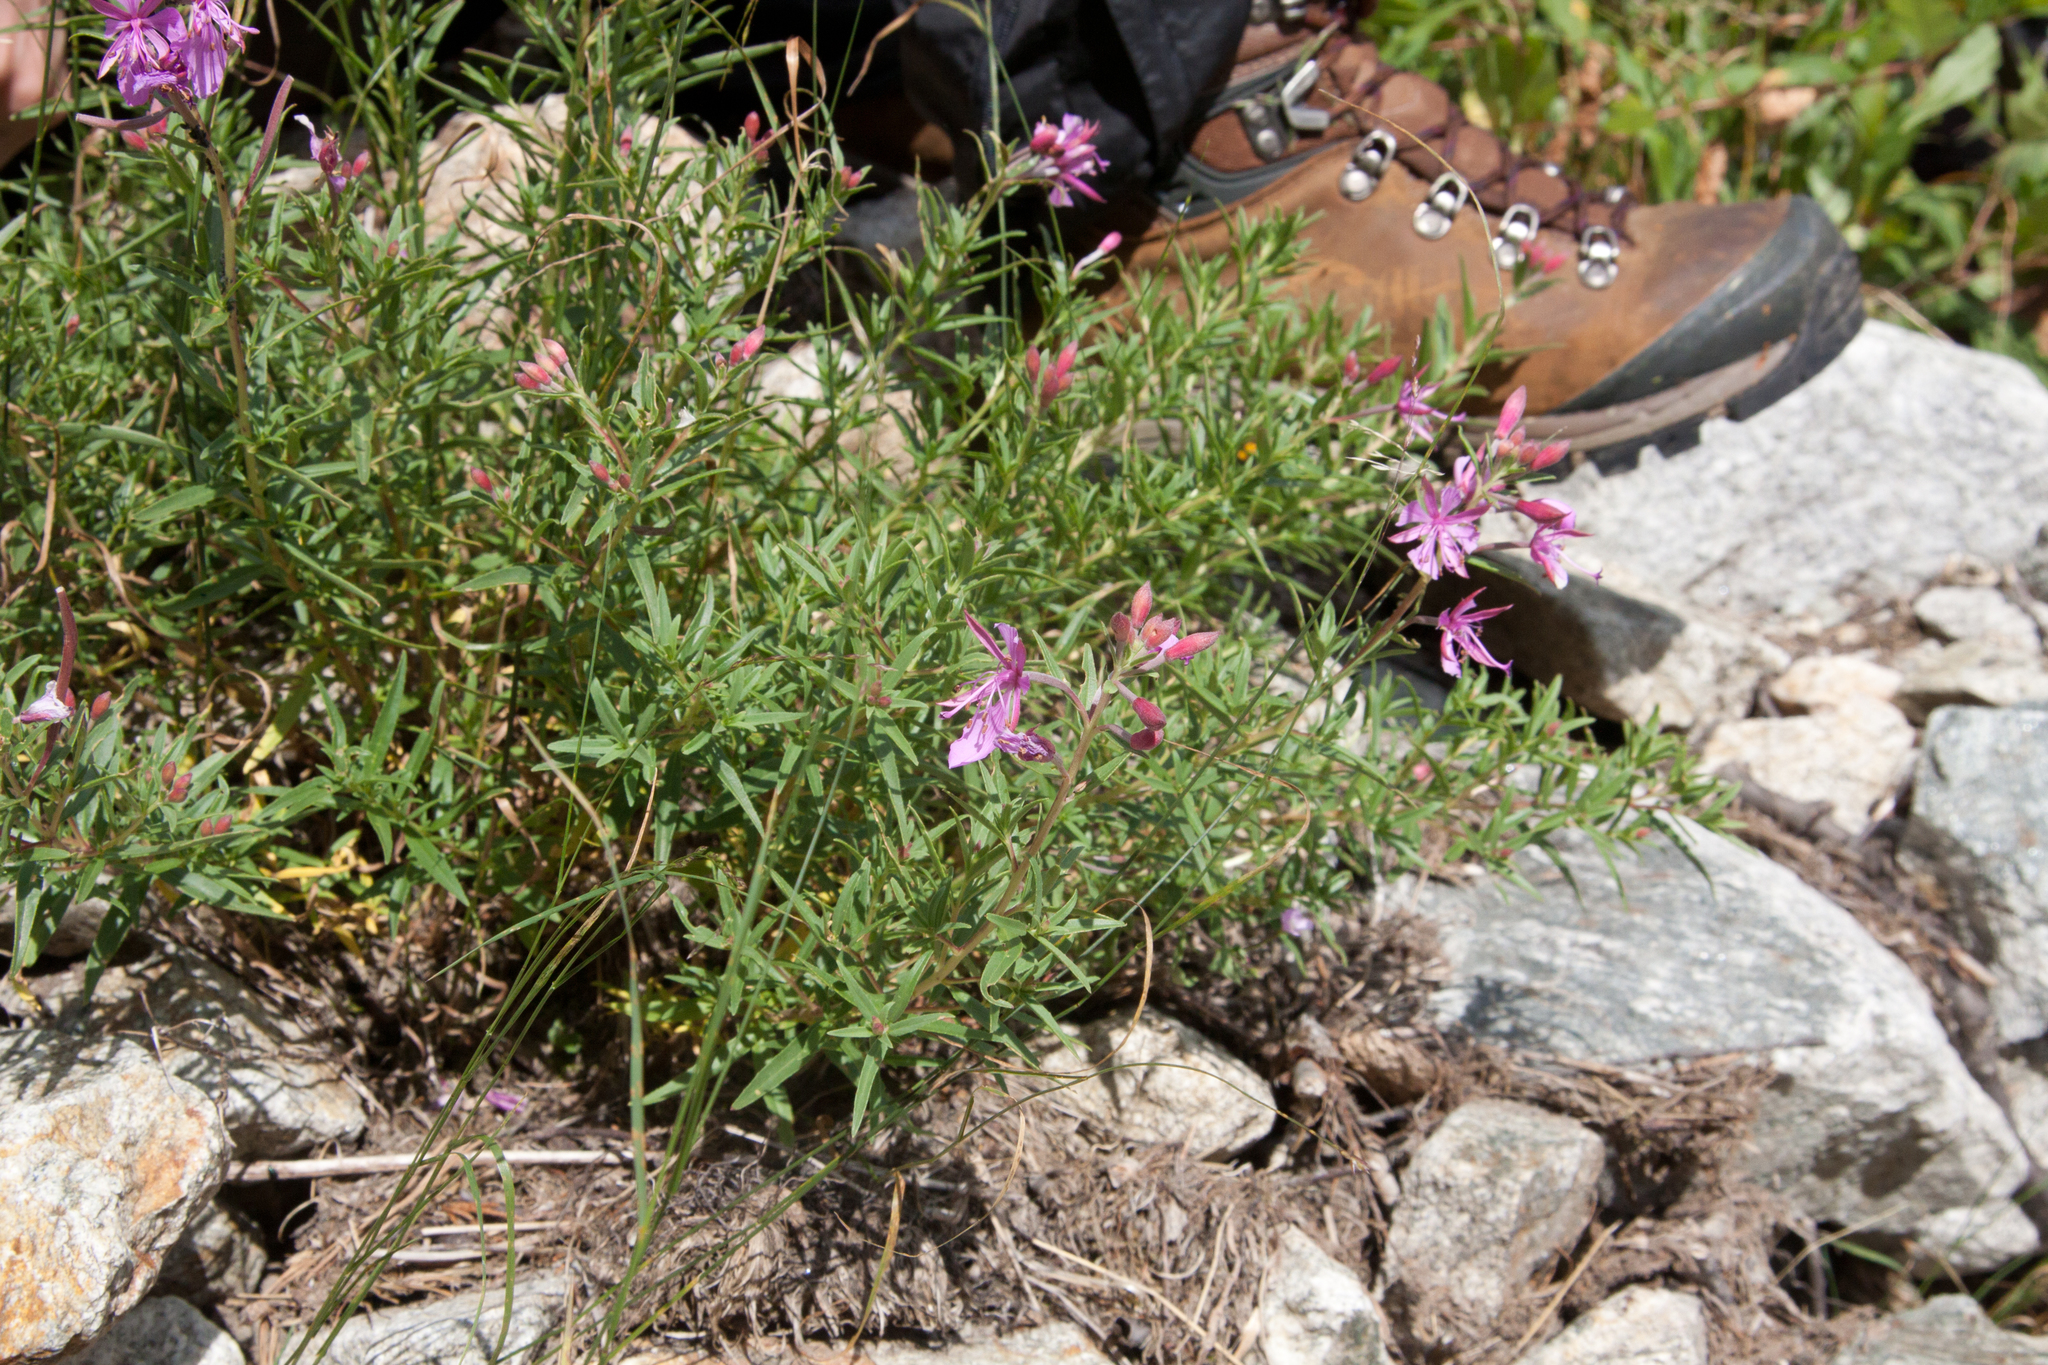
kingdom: Plantae
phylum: Tracheophyta
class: Magnoliopsida
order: Myrtales
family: Onagraceae
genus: Chamaenerion
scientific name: Chamaenerion colchicum
